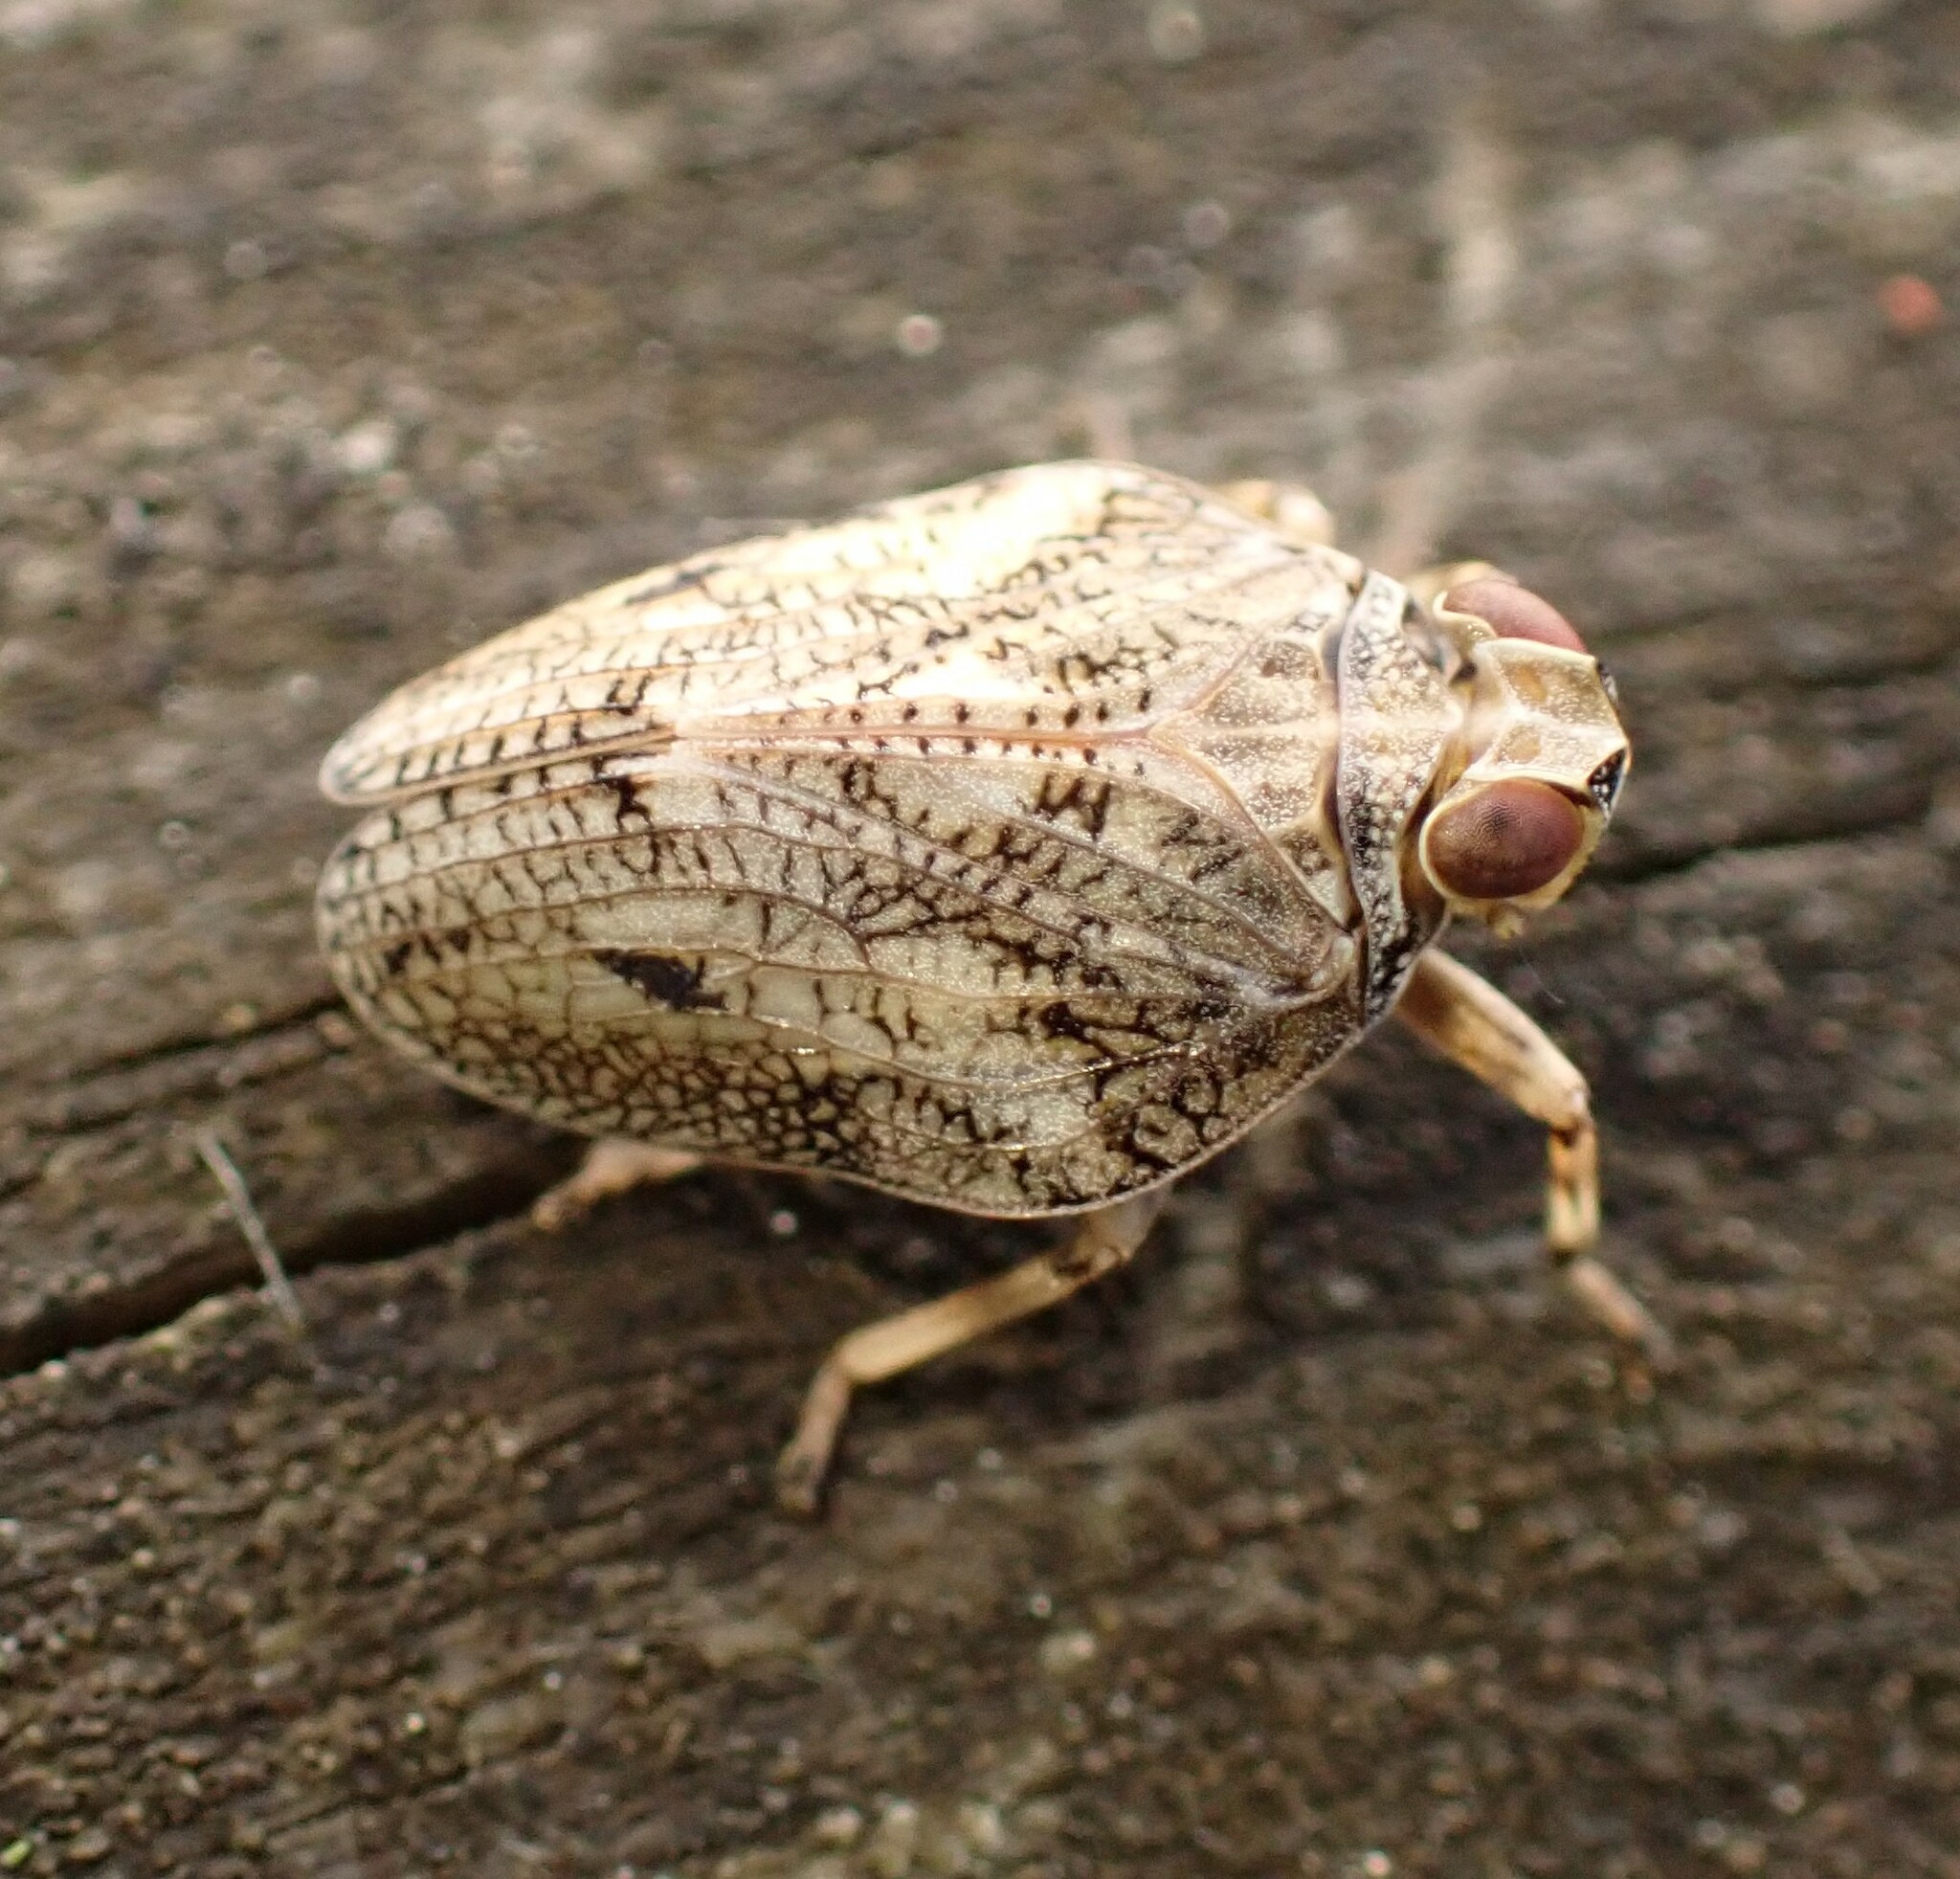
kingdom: Animalia
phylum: Arthropoda
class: Insecta
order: Hemiptera
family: Issidae
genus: Issus
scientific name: Issus coleoptratus
